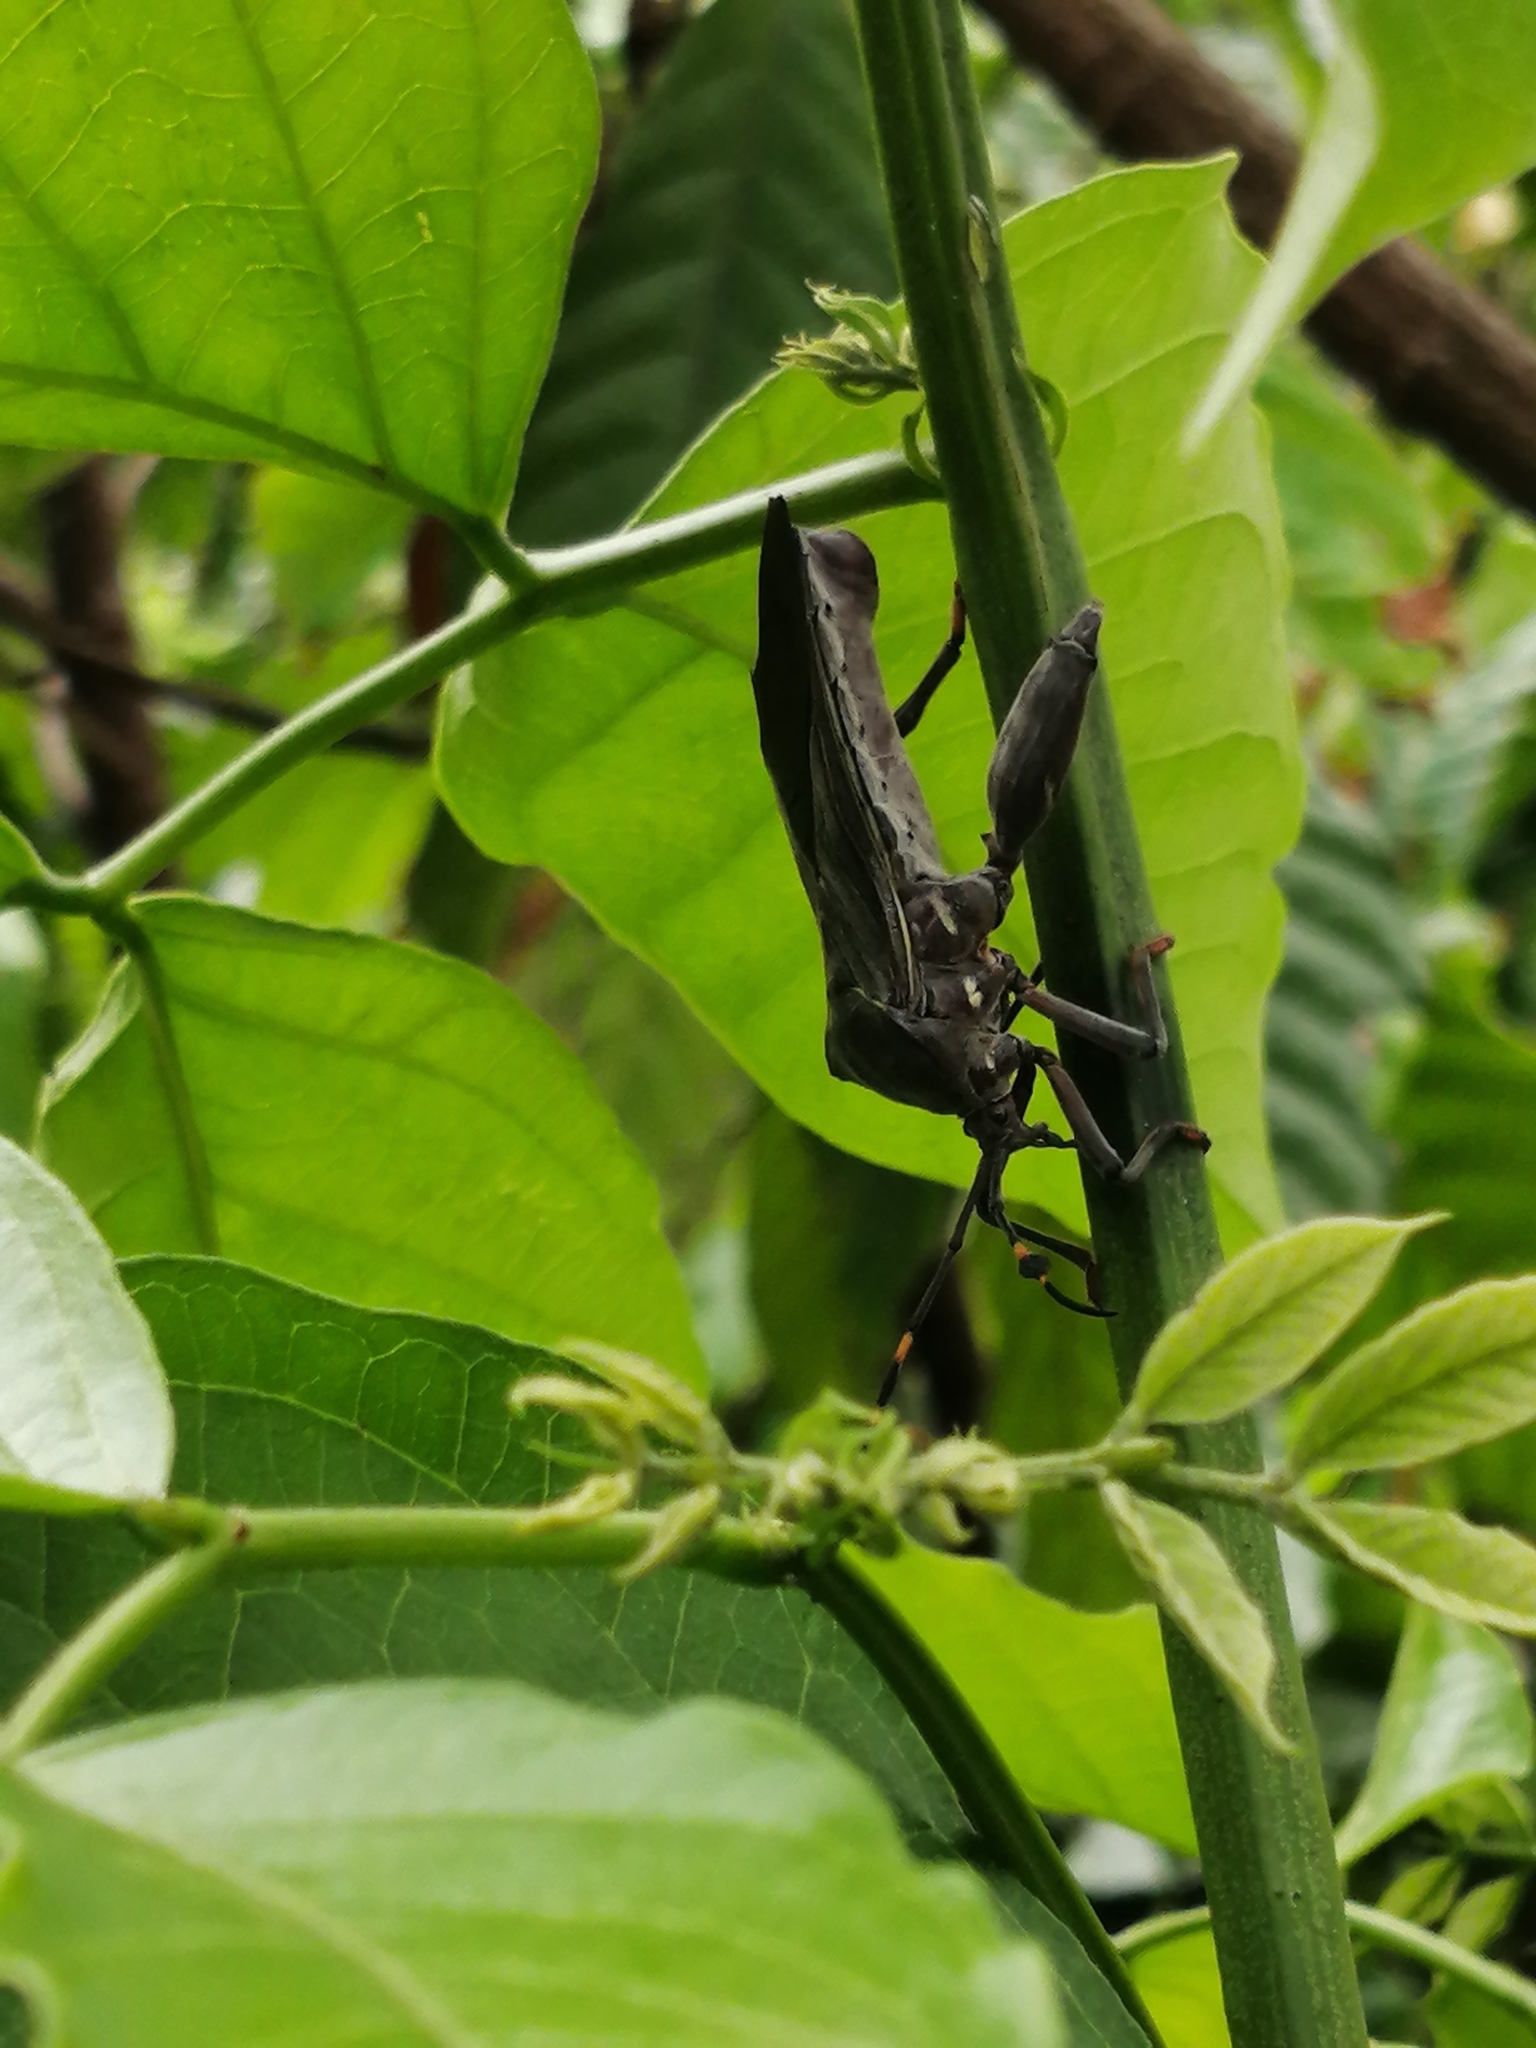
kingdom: Animalia
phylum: Arthropoda
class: Insecta
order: Hemiptera
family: Coreidae
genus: Thasus
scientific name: Thasus acutangulus
